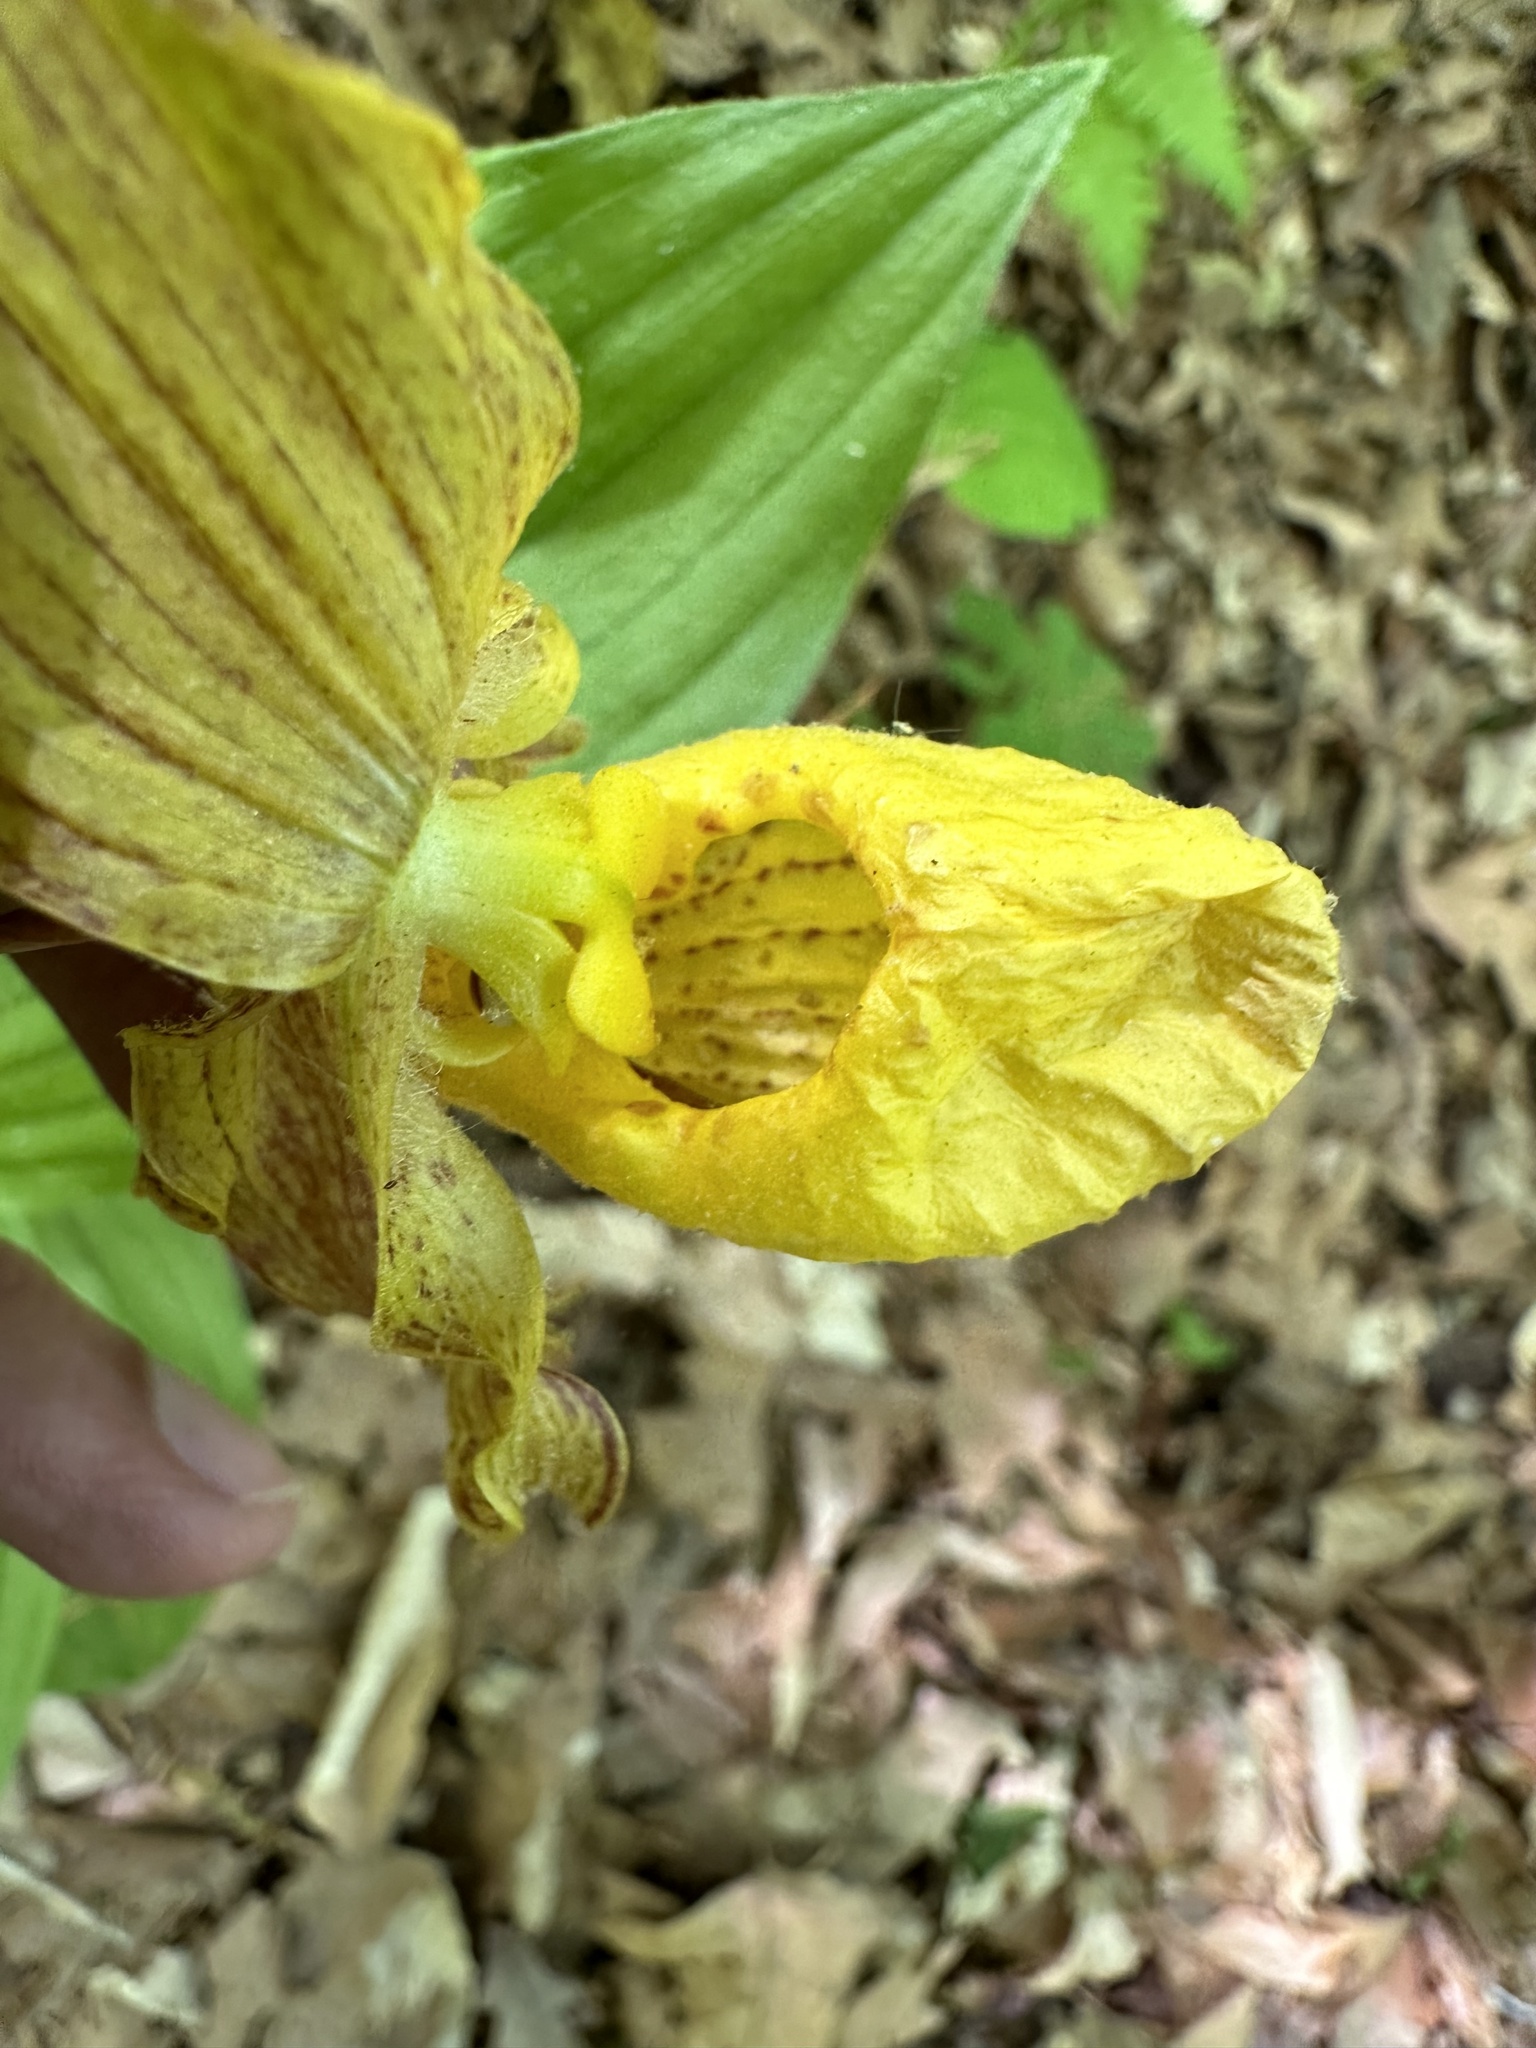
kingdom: Plantae
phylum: Tracheophyta
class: Liliopsida
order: Asparagales
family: Orchidaceae
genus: Cypripedium
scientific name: Cypripedium parviflorum
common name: American yellow lady's-slipper
